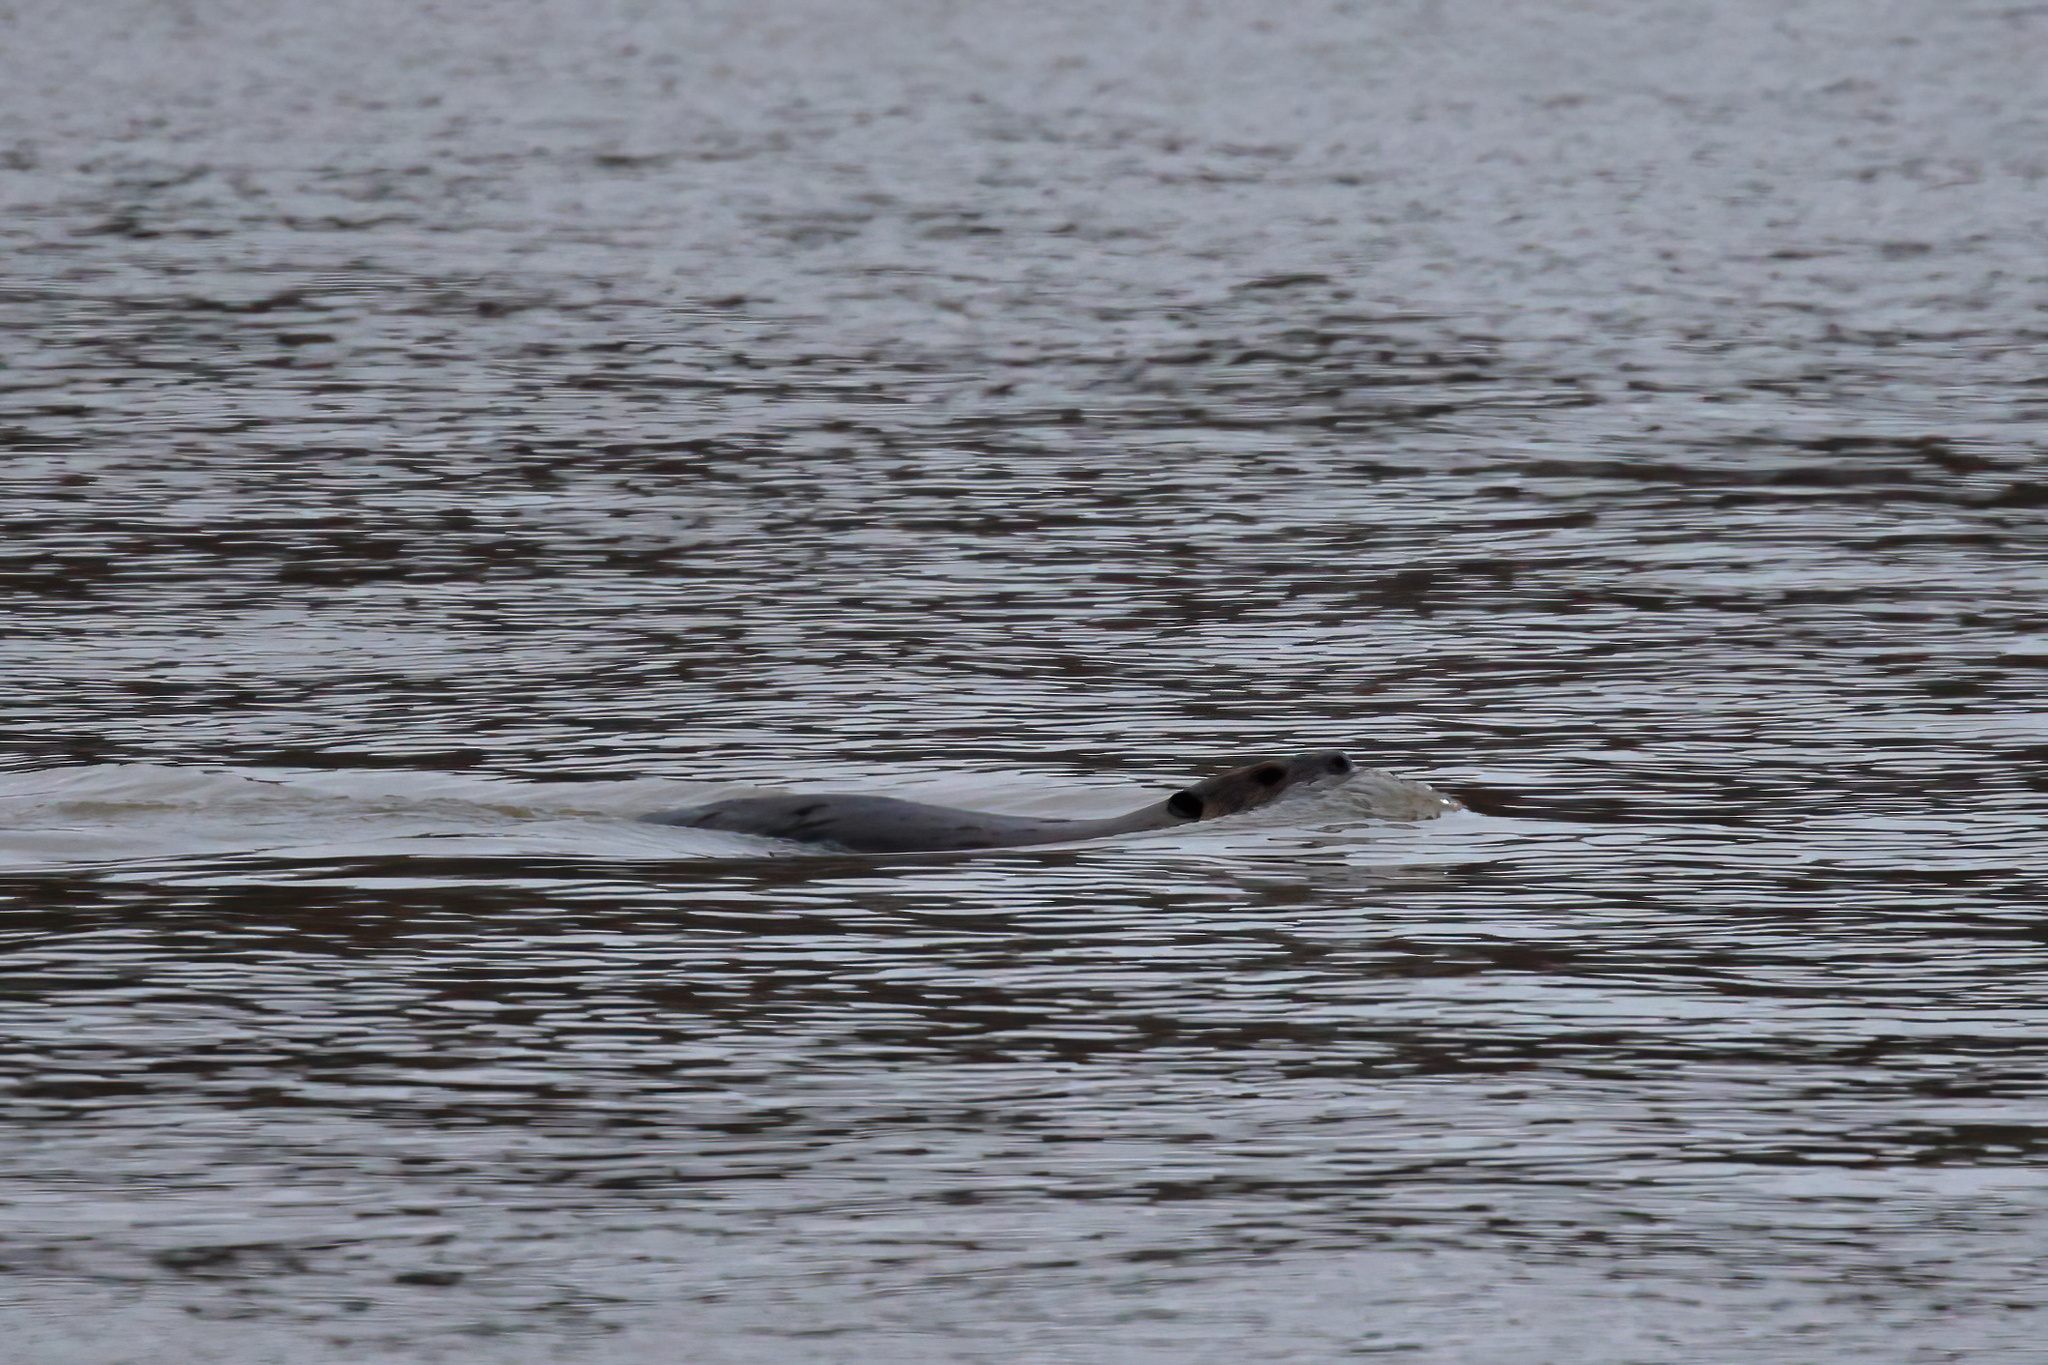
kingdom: Animalia
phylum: Chordata
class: Mammalia
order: Rodentia
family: Castoridae
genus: Castor
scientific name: Castor canadensis
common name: American beaver
